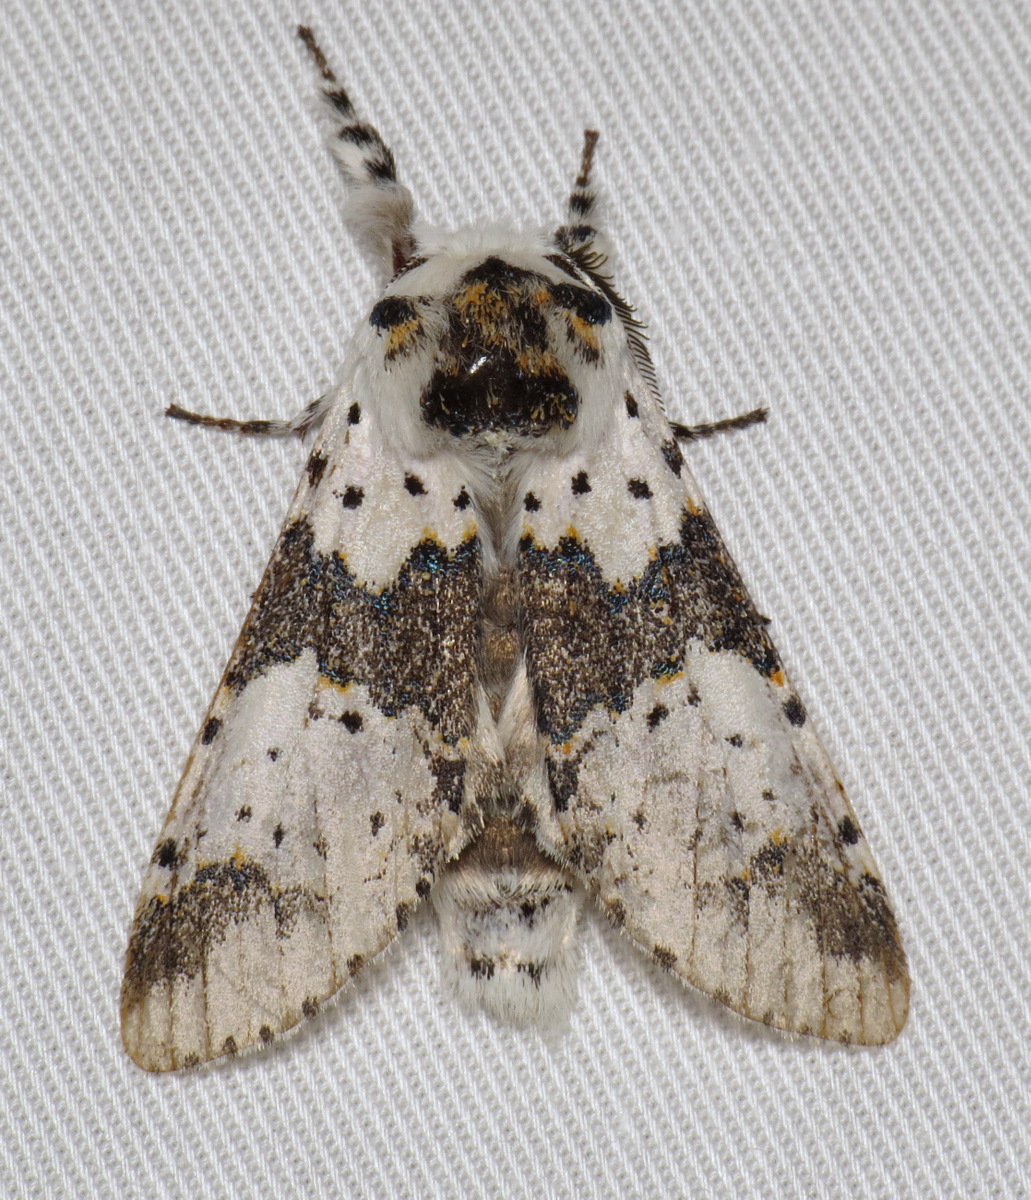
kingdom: Animalia
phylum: Arthropoda
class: Insecta
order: Lepidoptera
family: Notodontidae
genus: Furcula
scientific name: Furcula borealis
